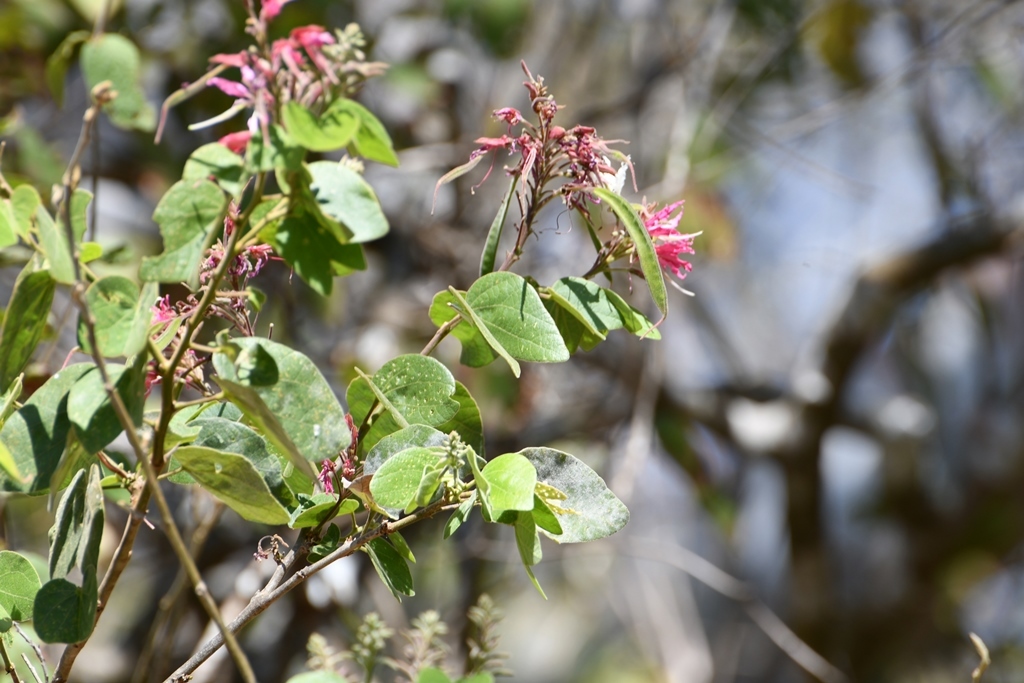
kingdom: Plantae
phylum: Tracheophyta
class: Magnoliopsida
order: Fabales
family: Fabaceae
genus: Bauhinia
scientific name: Bauhinia divaricata
